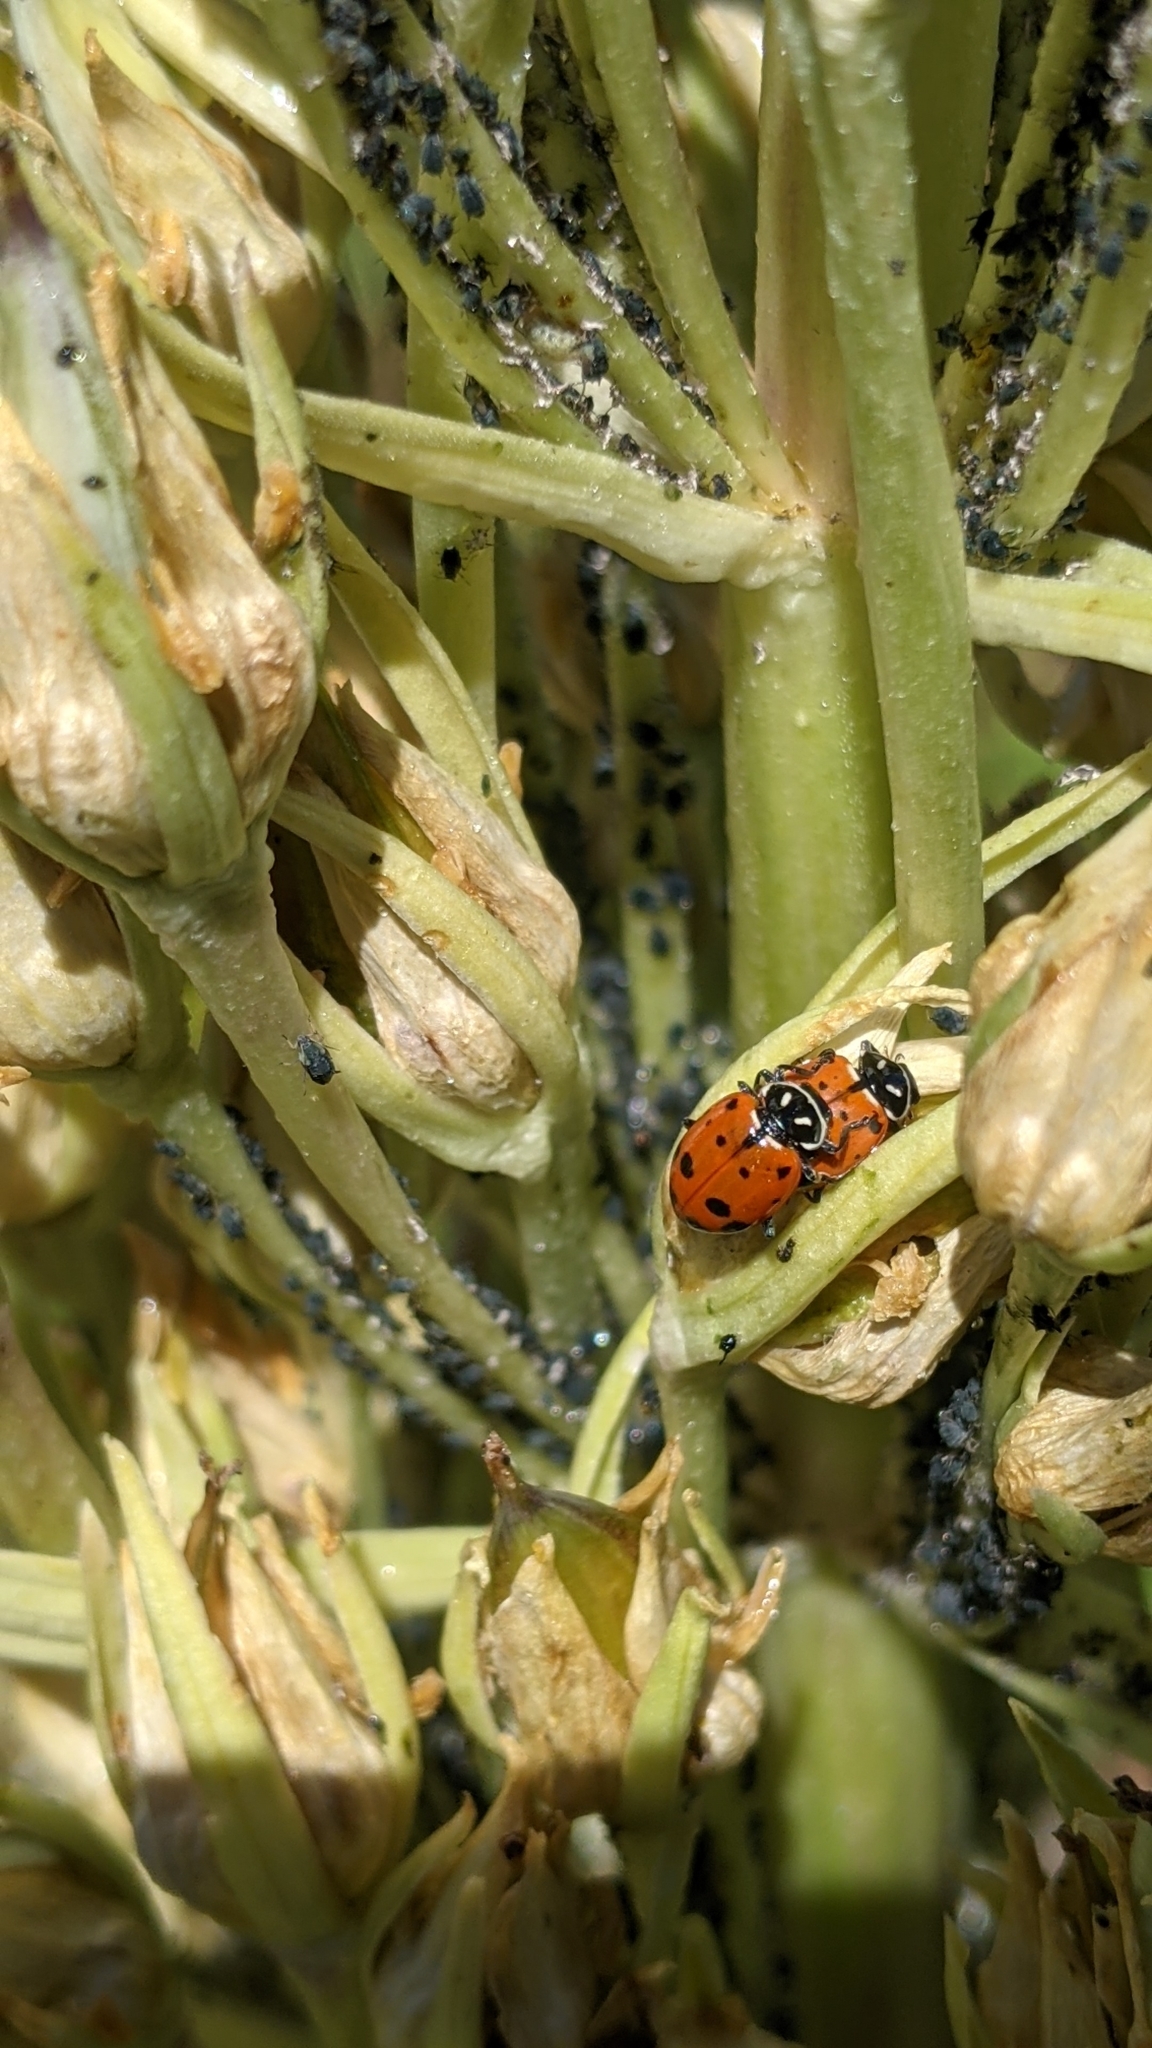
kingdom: Animalia
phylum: Arthropoda
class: Insecta
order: Coleoptera
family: Coccinellidae
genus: Hippodamia
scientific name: Hippodamia convergens
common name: Convergent lady beetle
